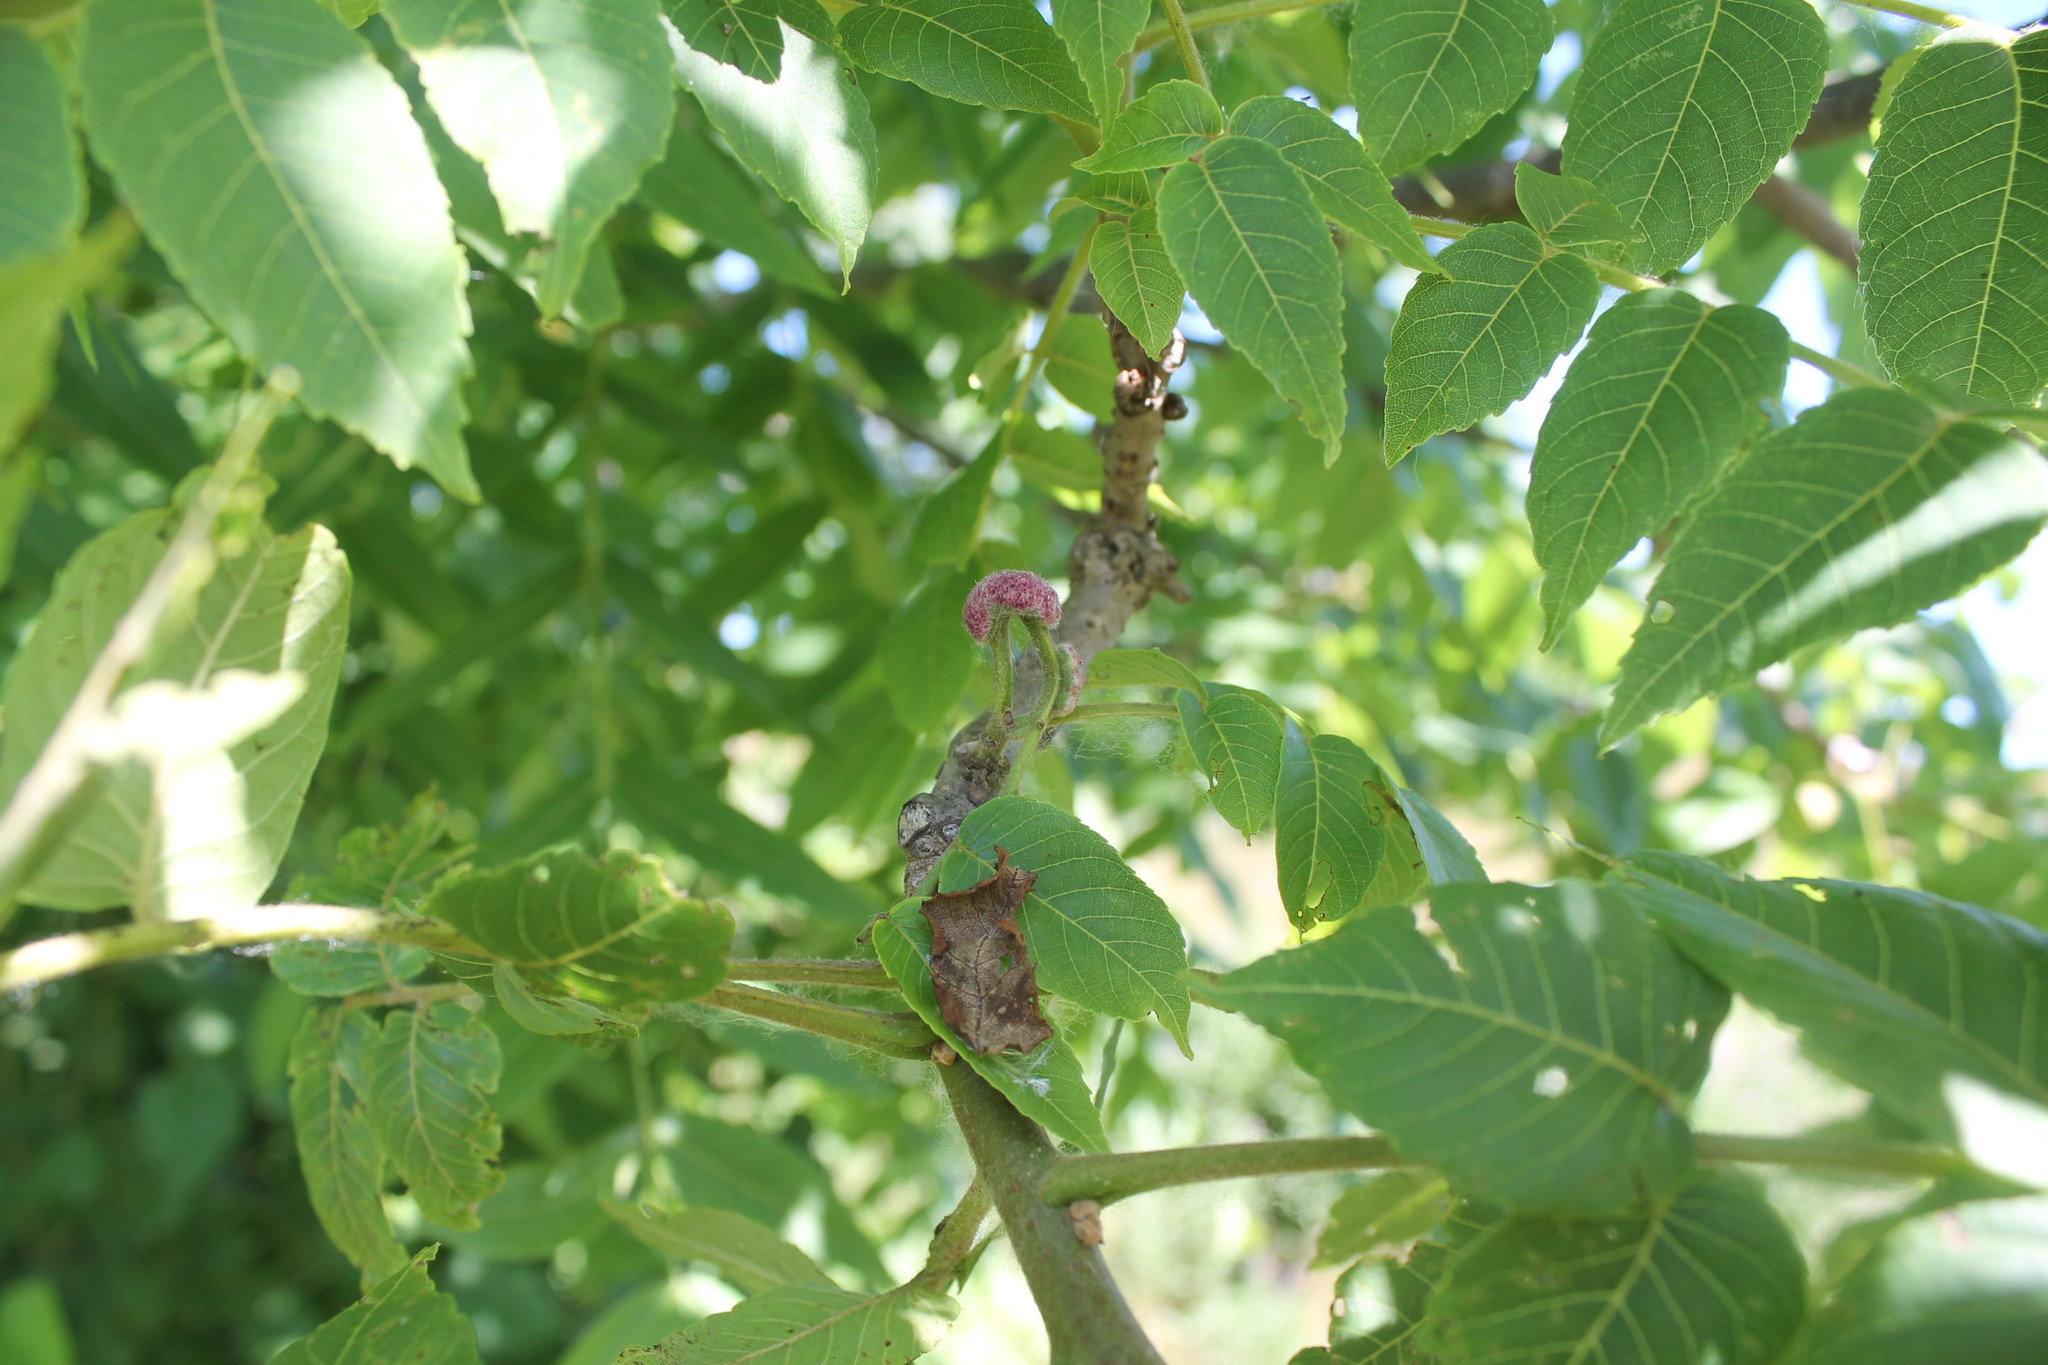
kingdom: Animalia
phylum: Arthropoda
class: Arachnida
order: Trombidiformes
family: Eriophyidae
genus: Aceria
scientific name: Aceria
